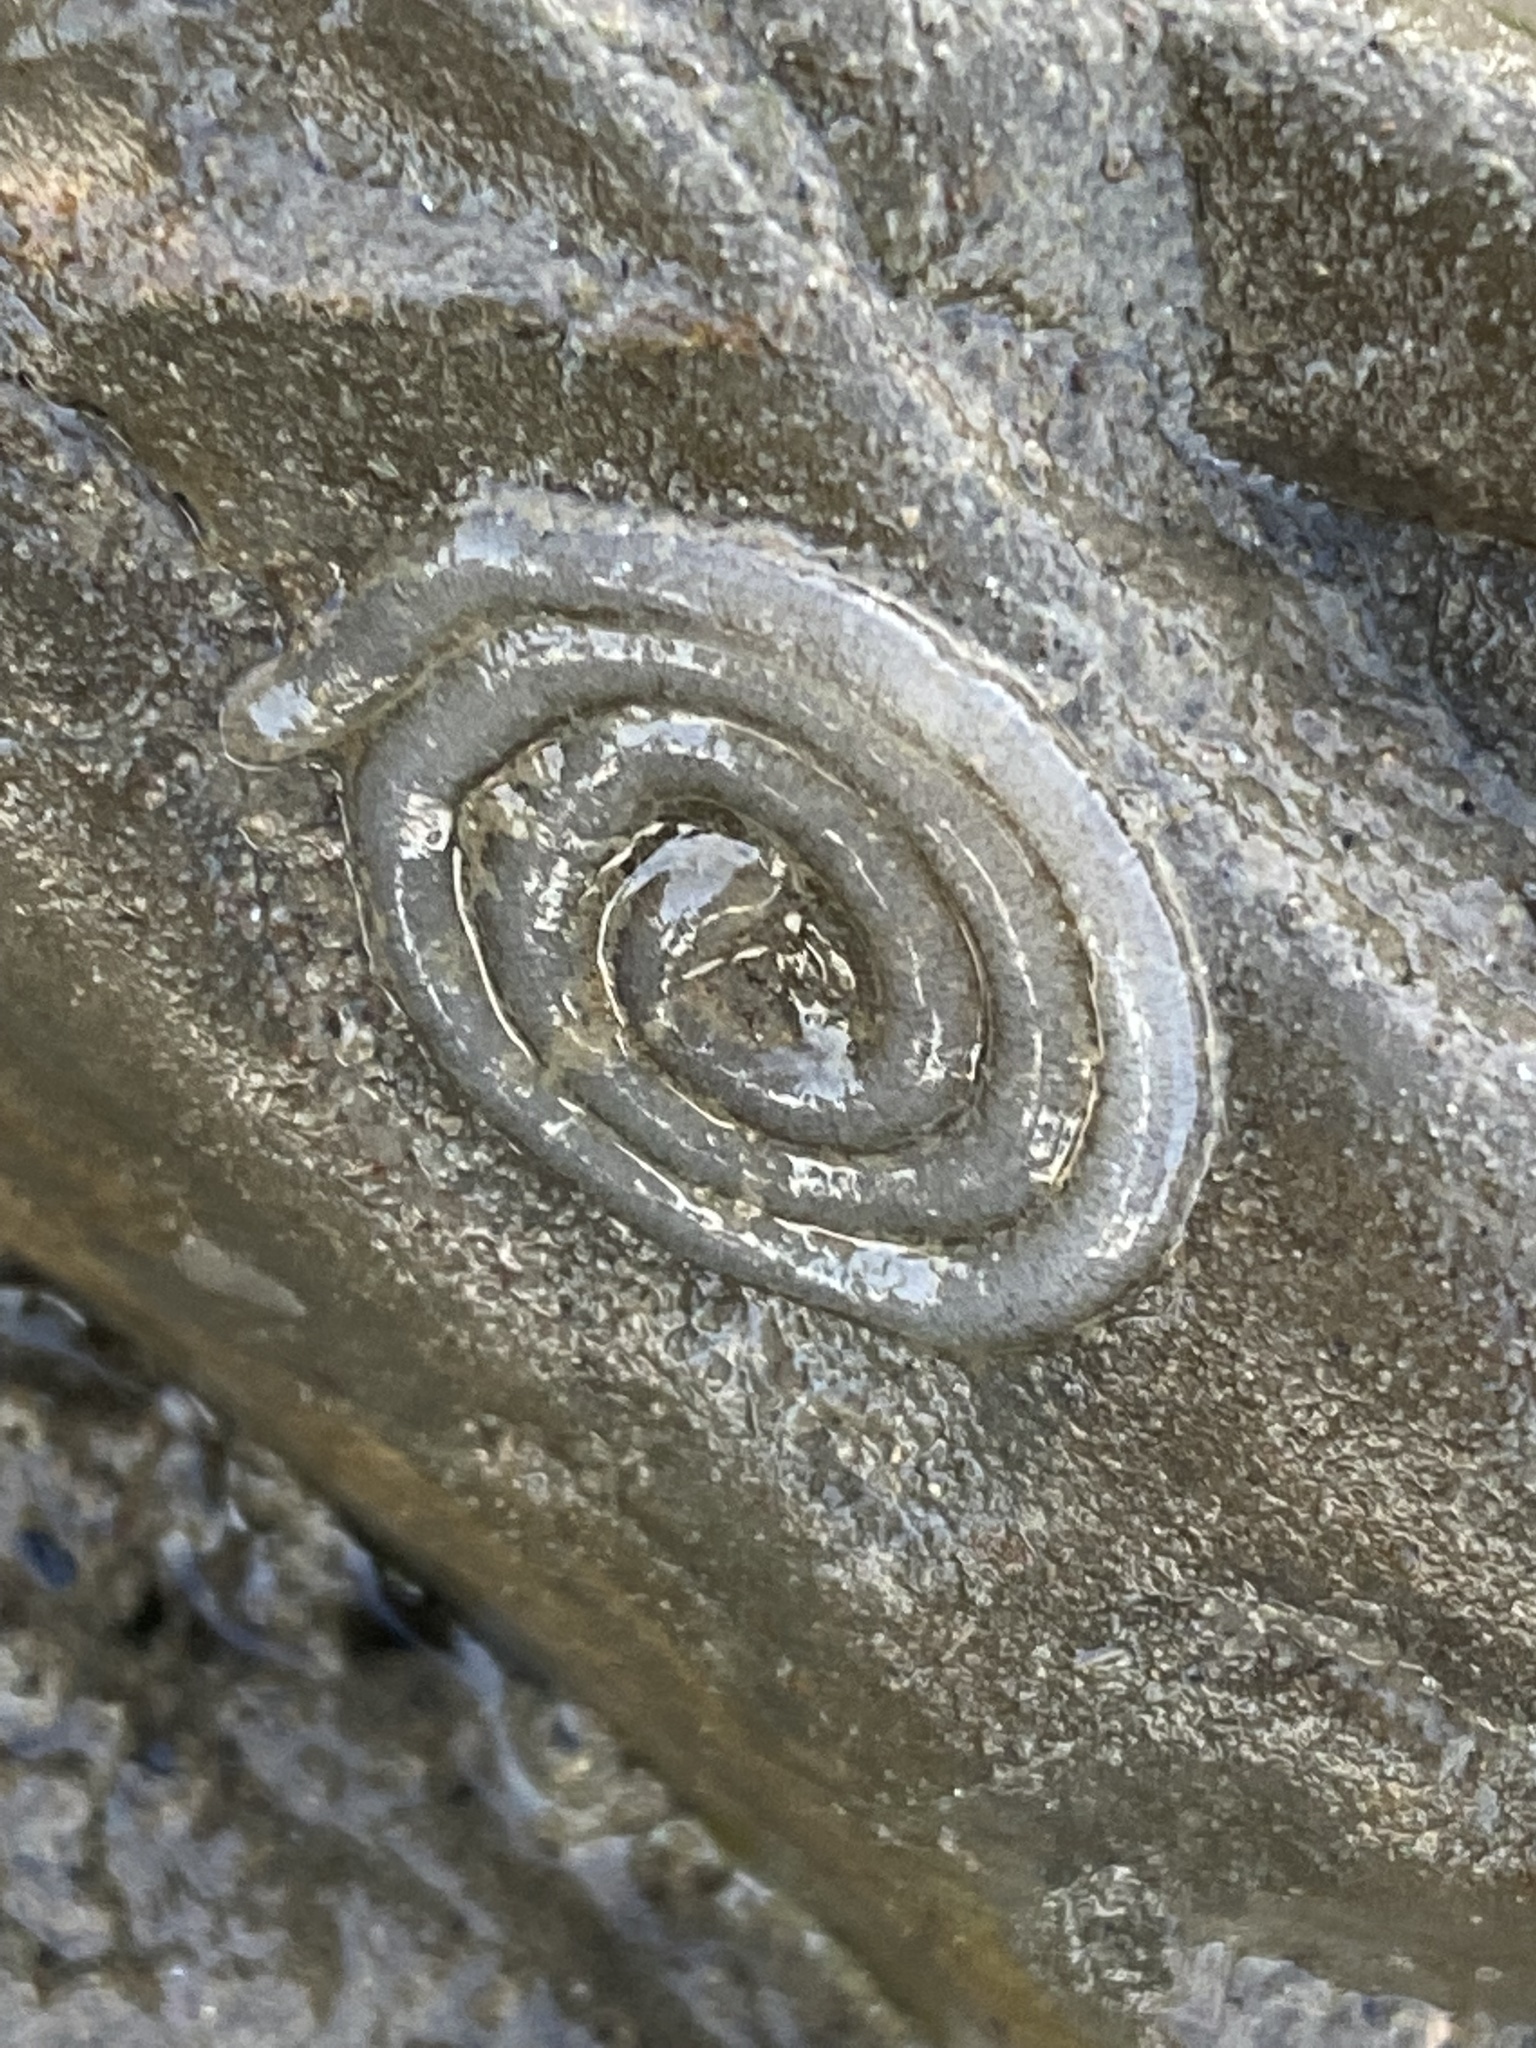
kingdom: Animalia
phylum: Mollusca
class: Gastropoda
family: Plakobranchidae
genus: Elysia
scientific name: Elysia hedgpethi
